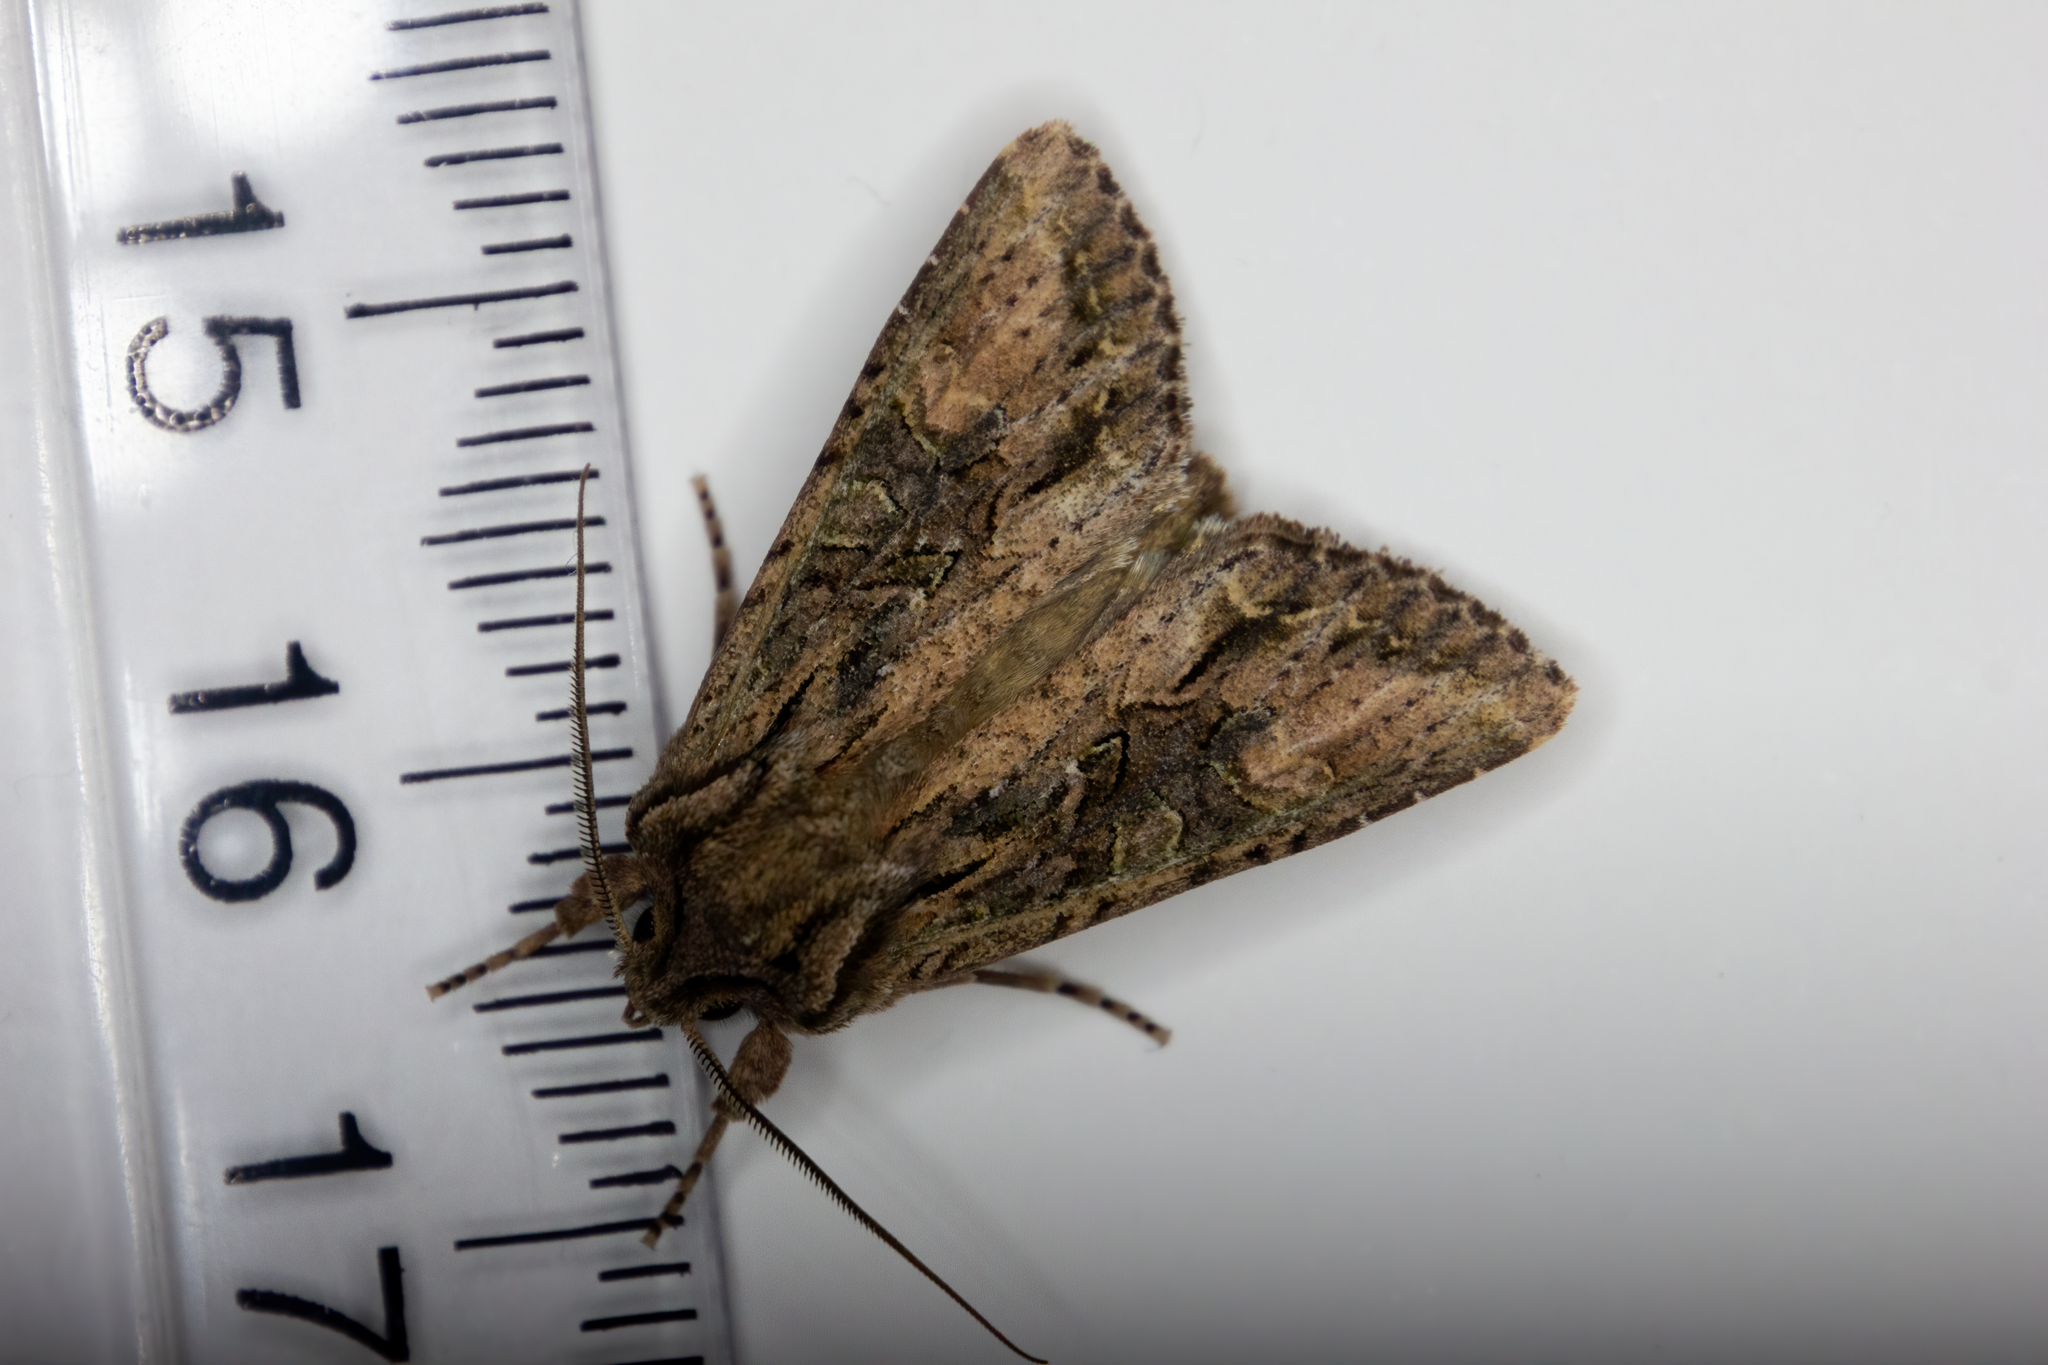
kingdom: Animalia
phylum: Arthropoda
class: Insecta
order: Lepidoptera
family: Noctuidae
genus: Ichneutica
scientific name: Ichneutica mutans
